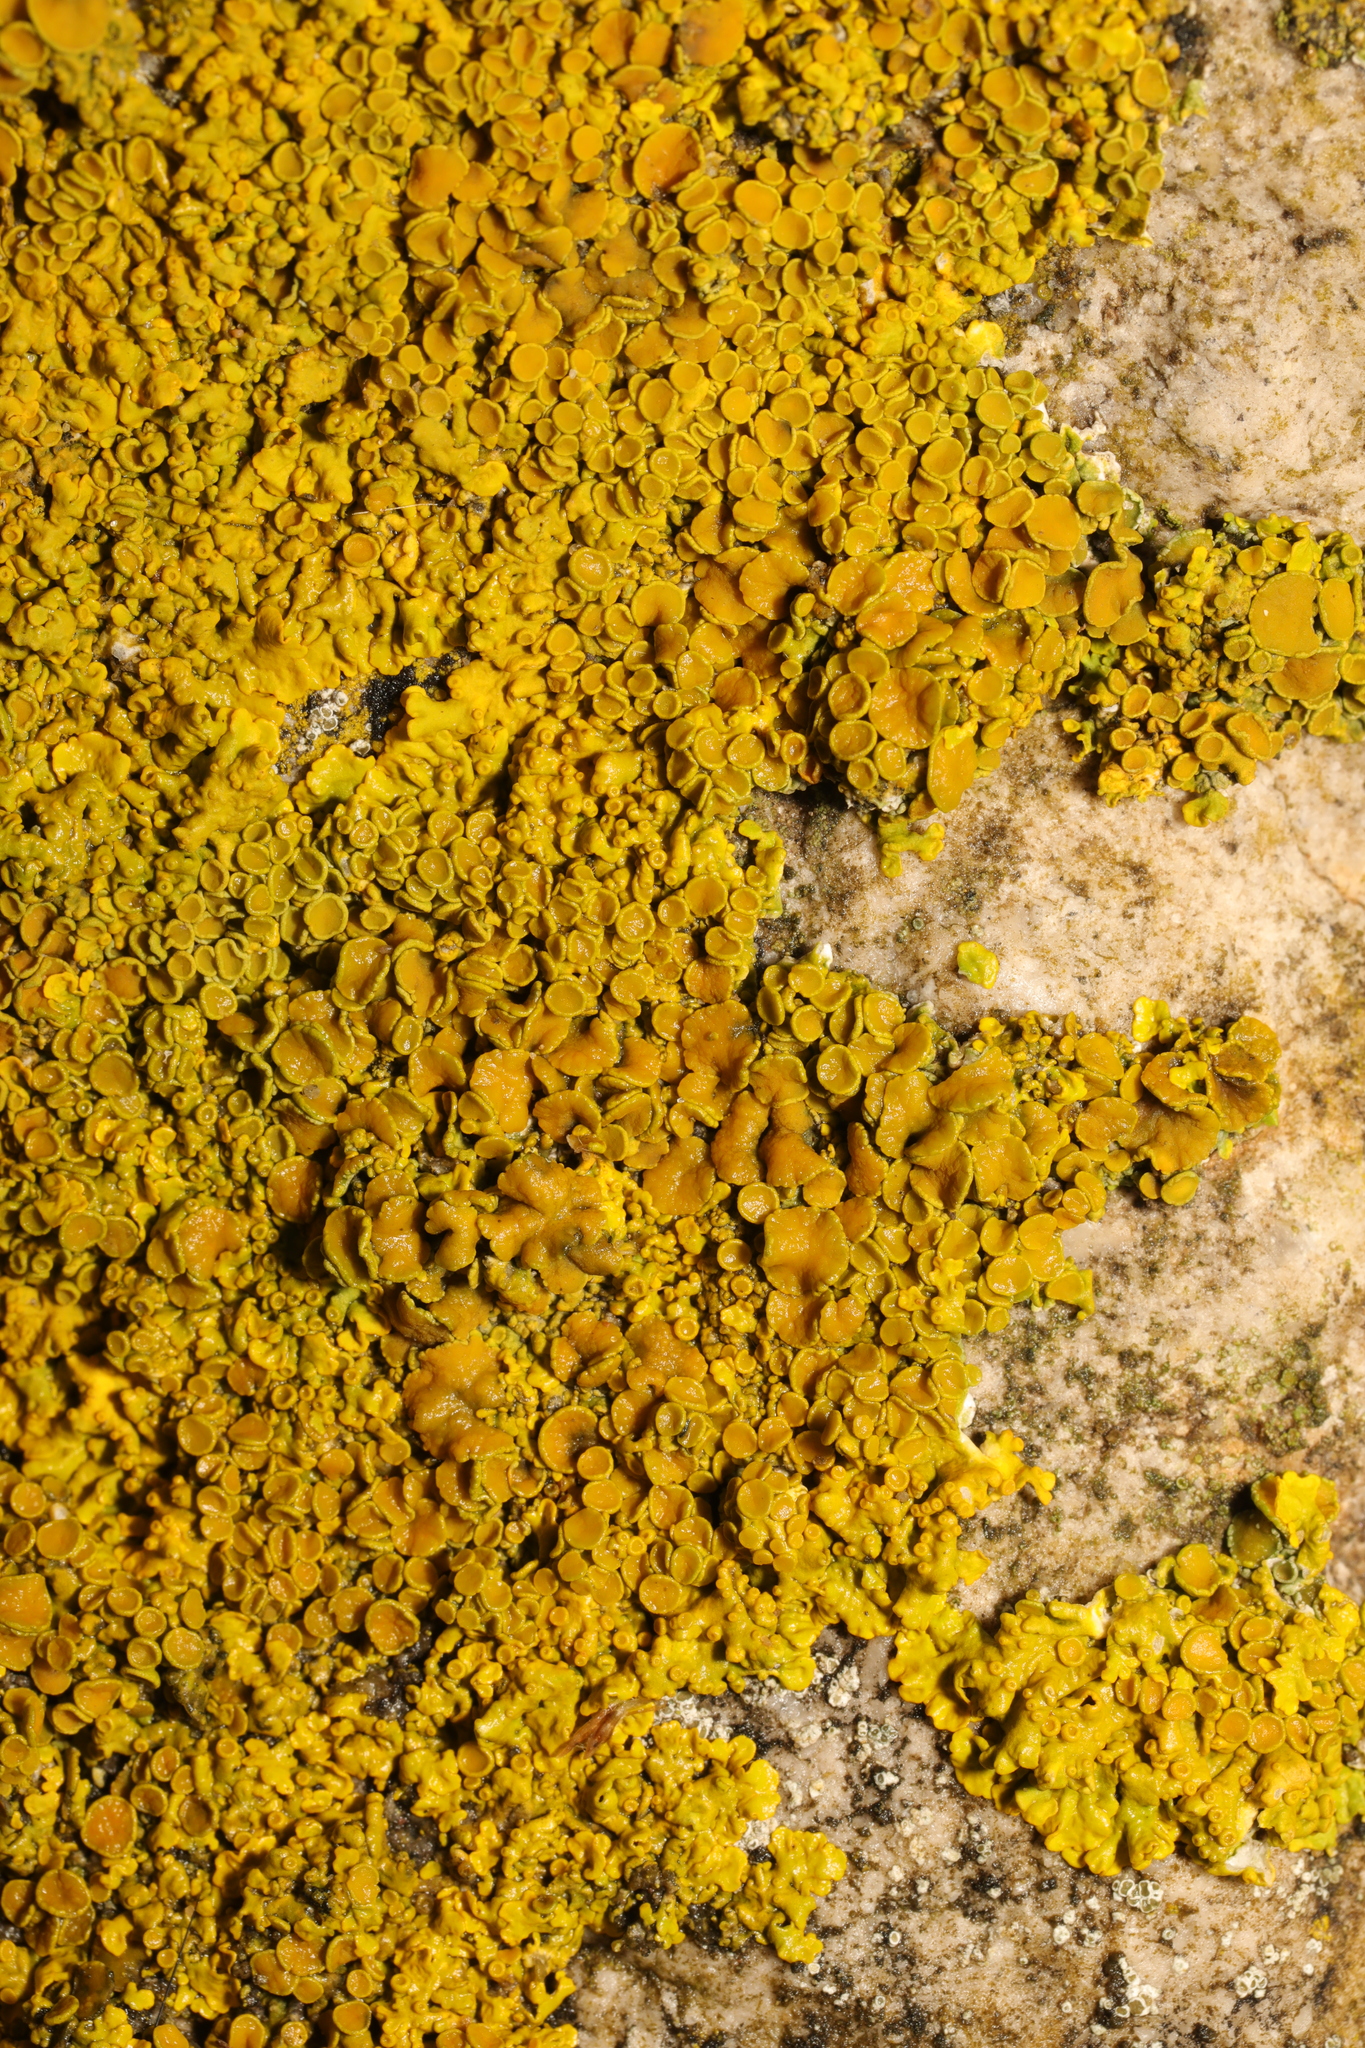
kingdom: Fungi
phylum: Ascomycota
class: Lecanoromycetes
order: Teloschistales
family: Teloschistaceae
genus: Xanthoria
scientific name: Xanthoria parietina
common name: Common orange lichen
